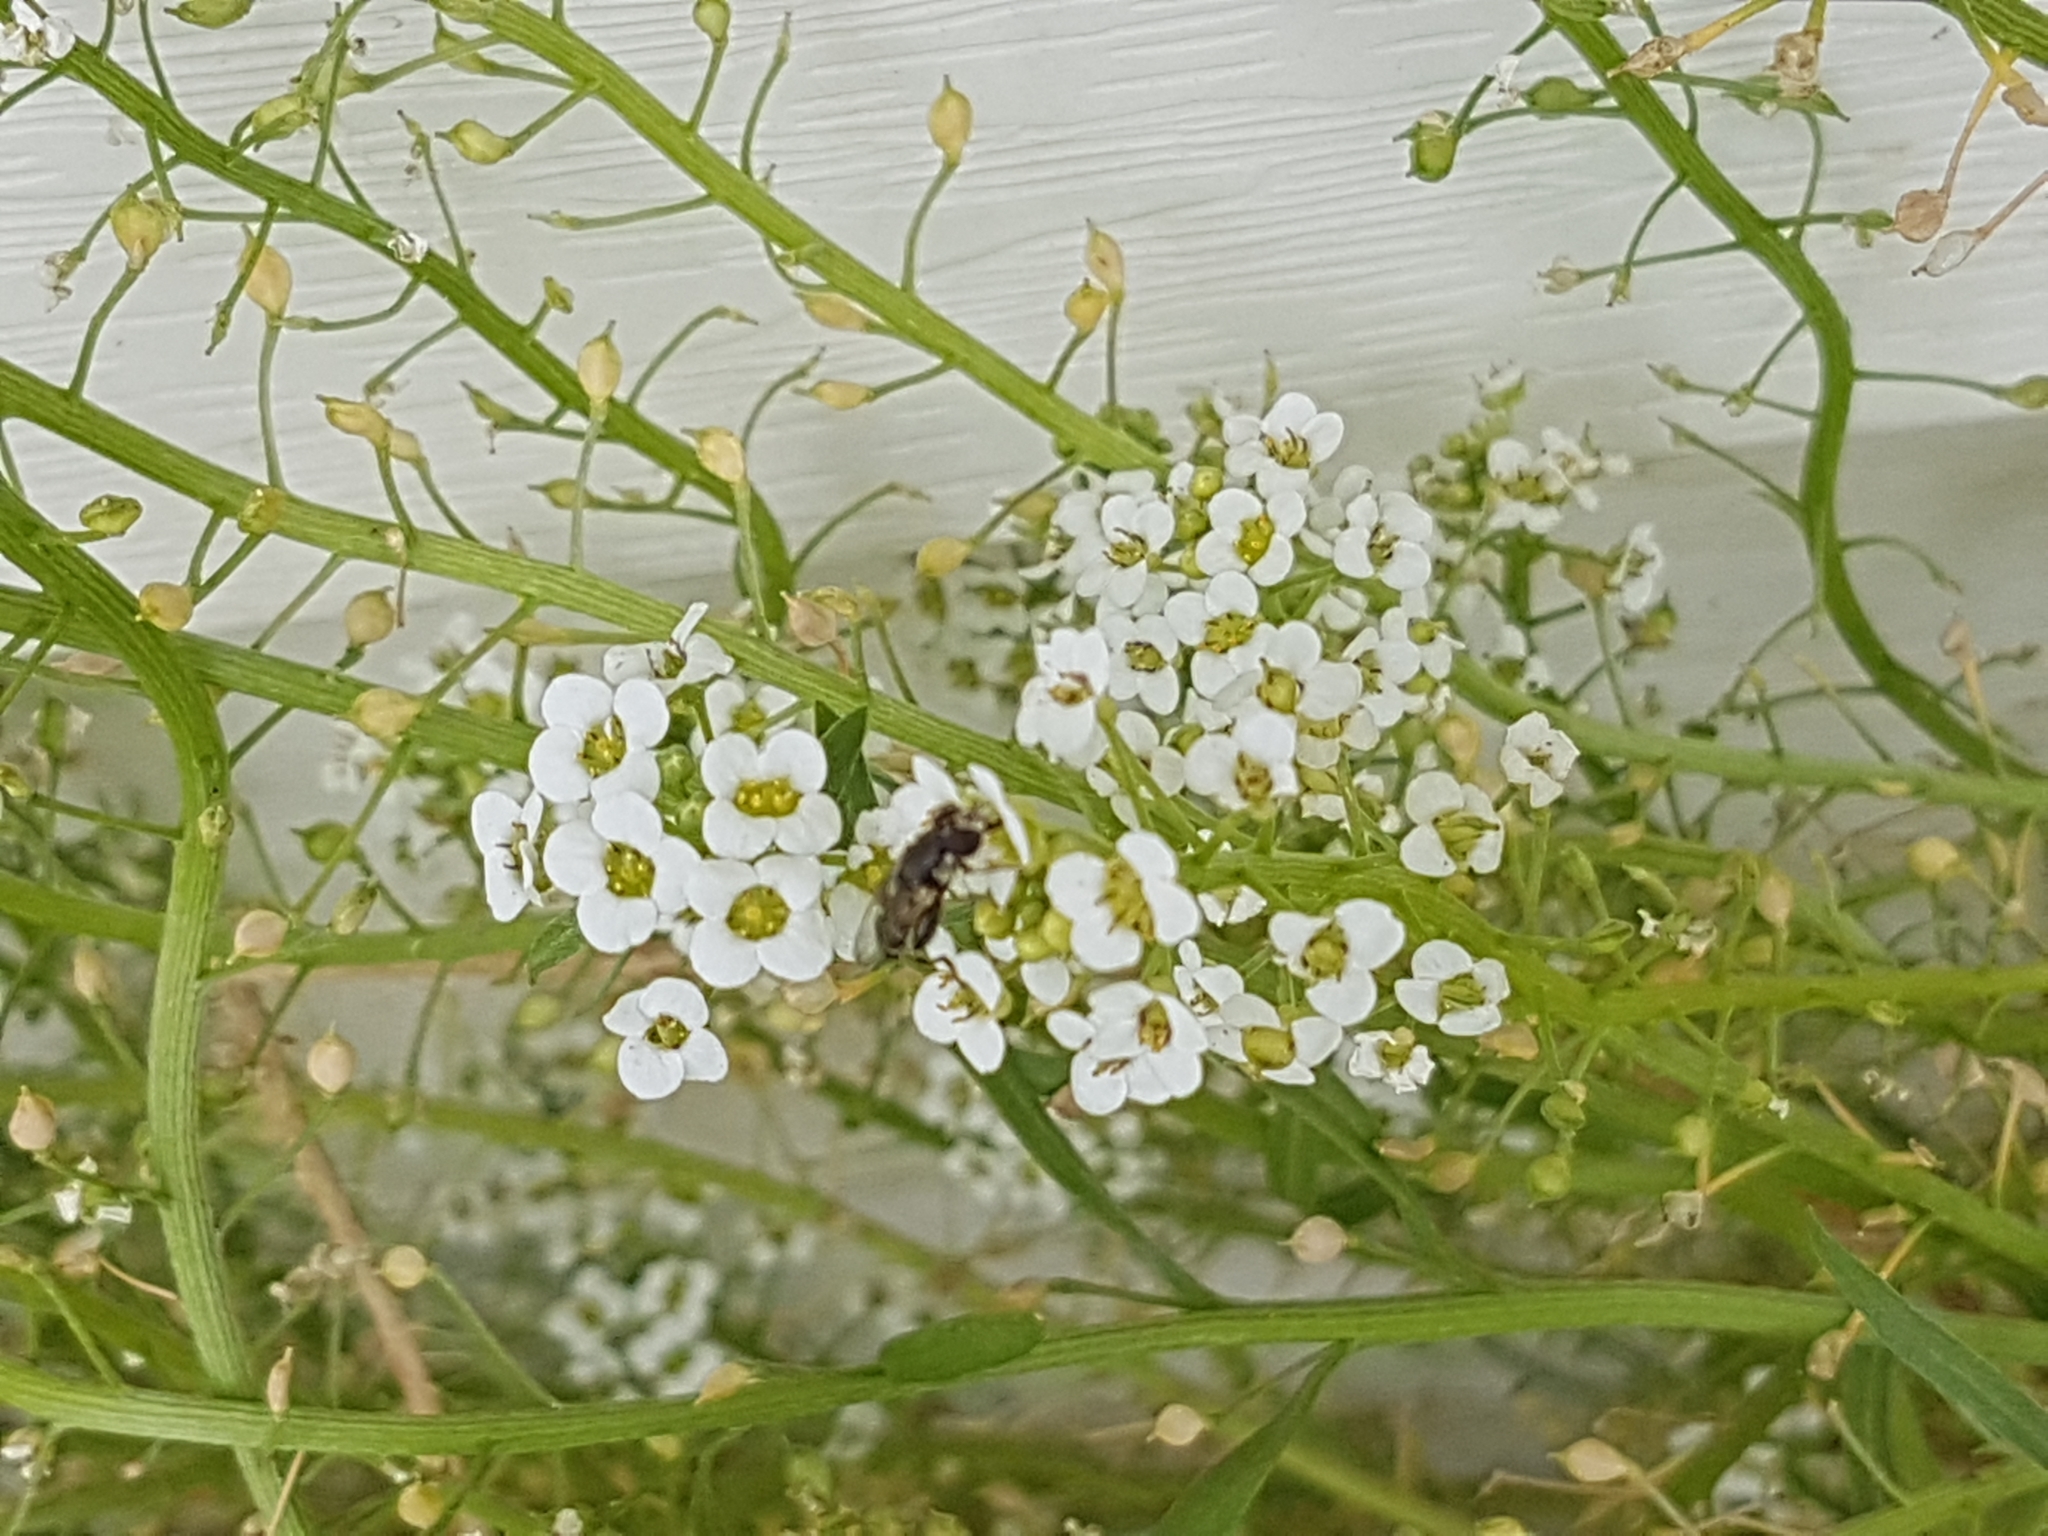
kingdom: Animalia
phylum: Arthropoda
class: Insecta
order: Diptera
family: Syrphidae
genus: Syritta
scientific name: Syritta pipiens
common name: Hover fly
